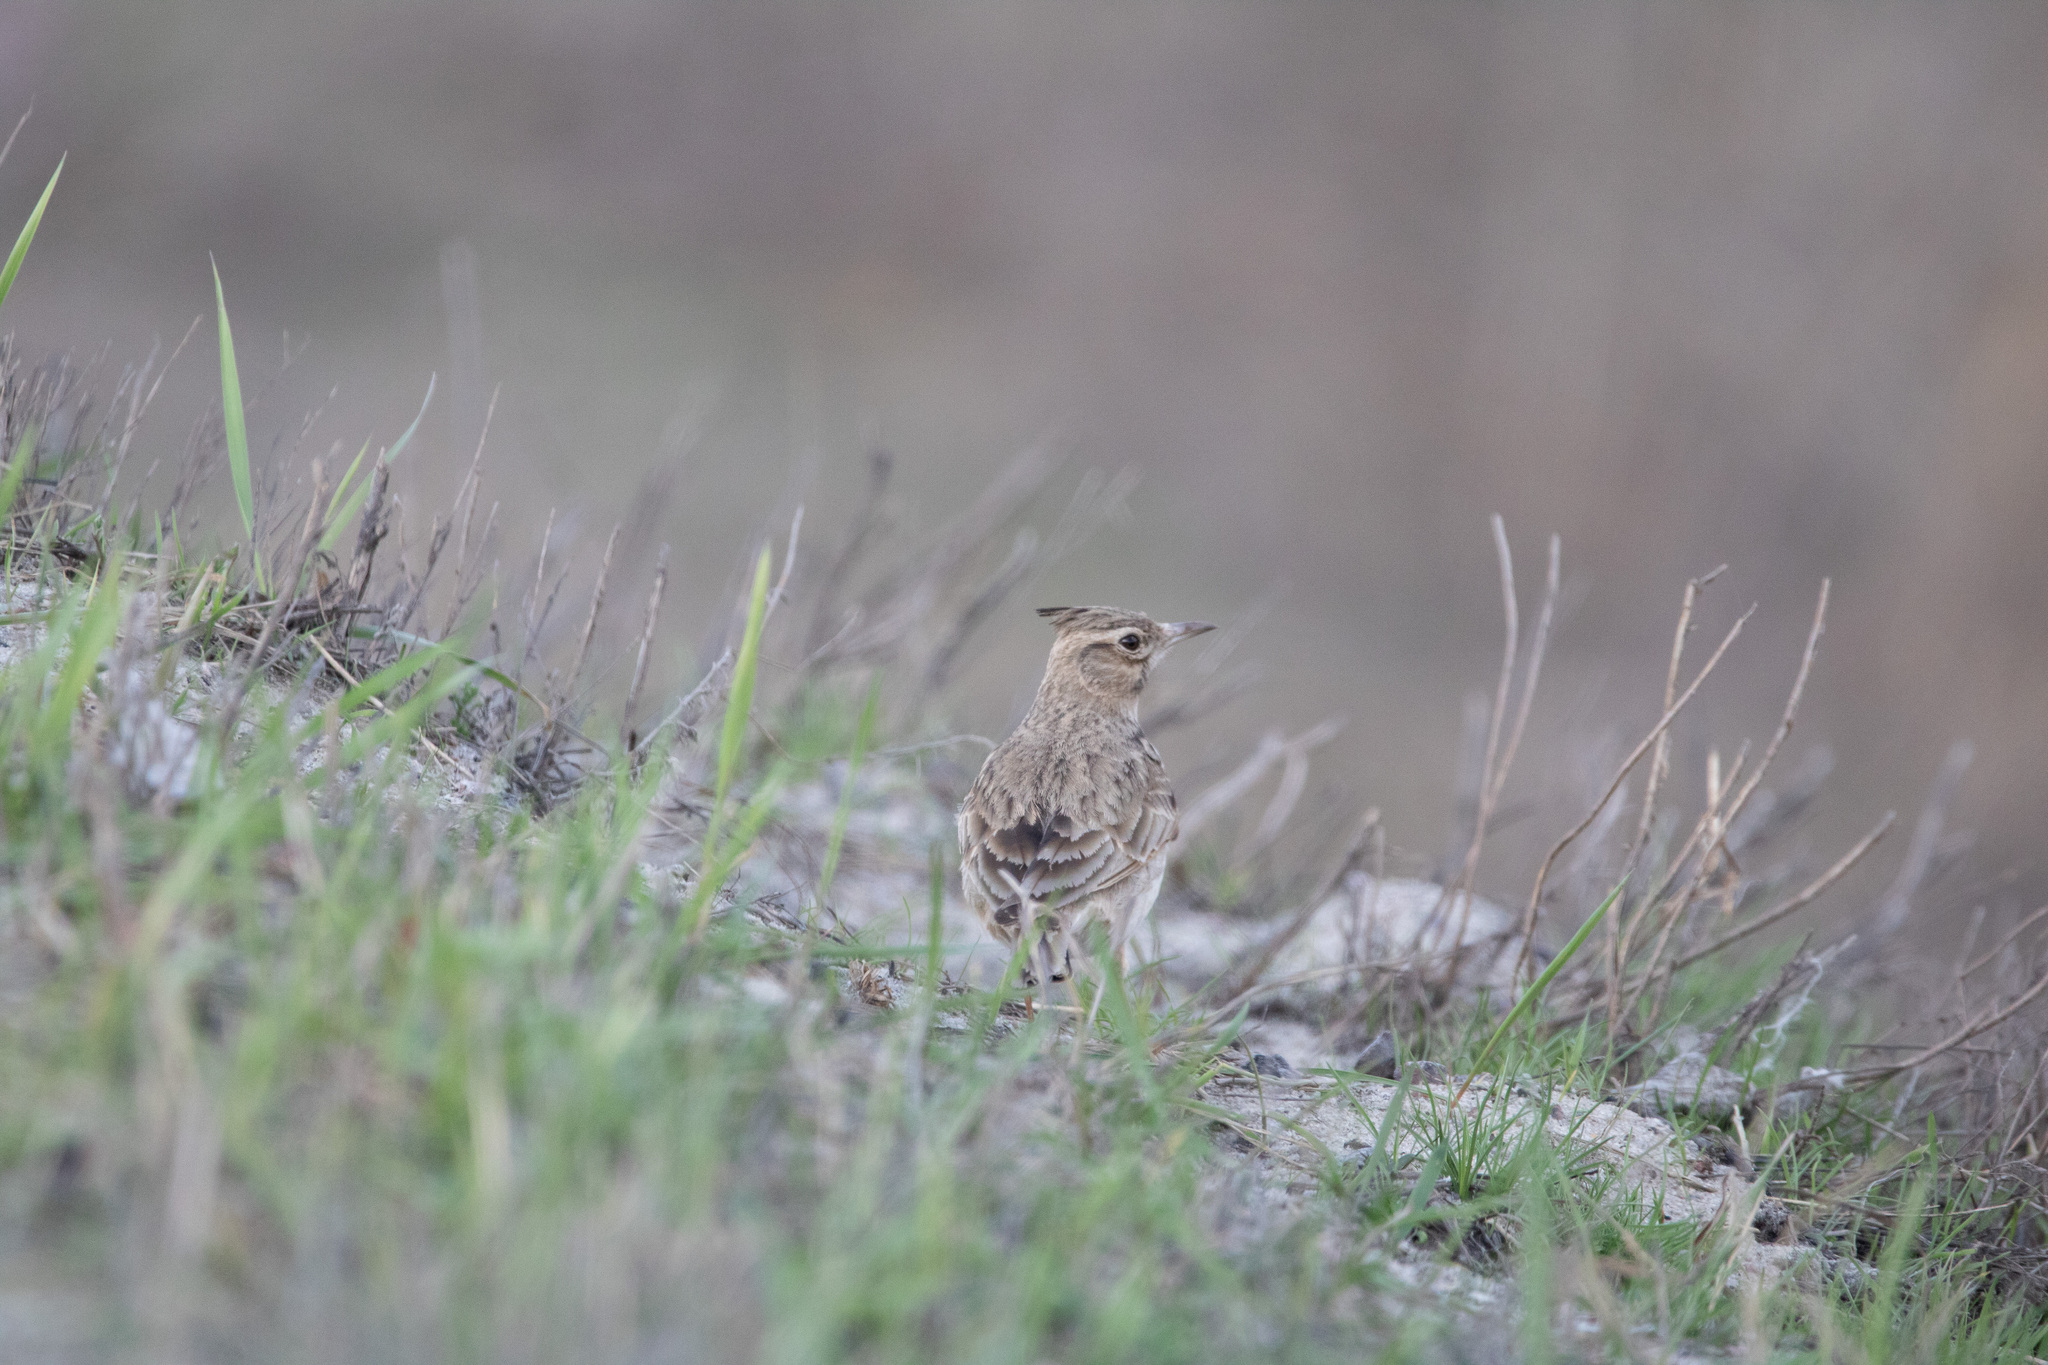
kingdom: Animalia
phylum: Chordata
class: Aves
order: Passeriformes
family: Alaudidae
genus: Galerida
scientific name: Galerida cristata
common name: Crested lark
